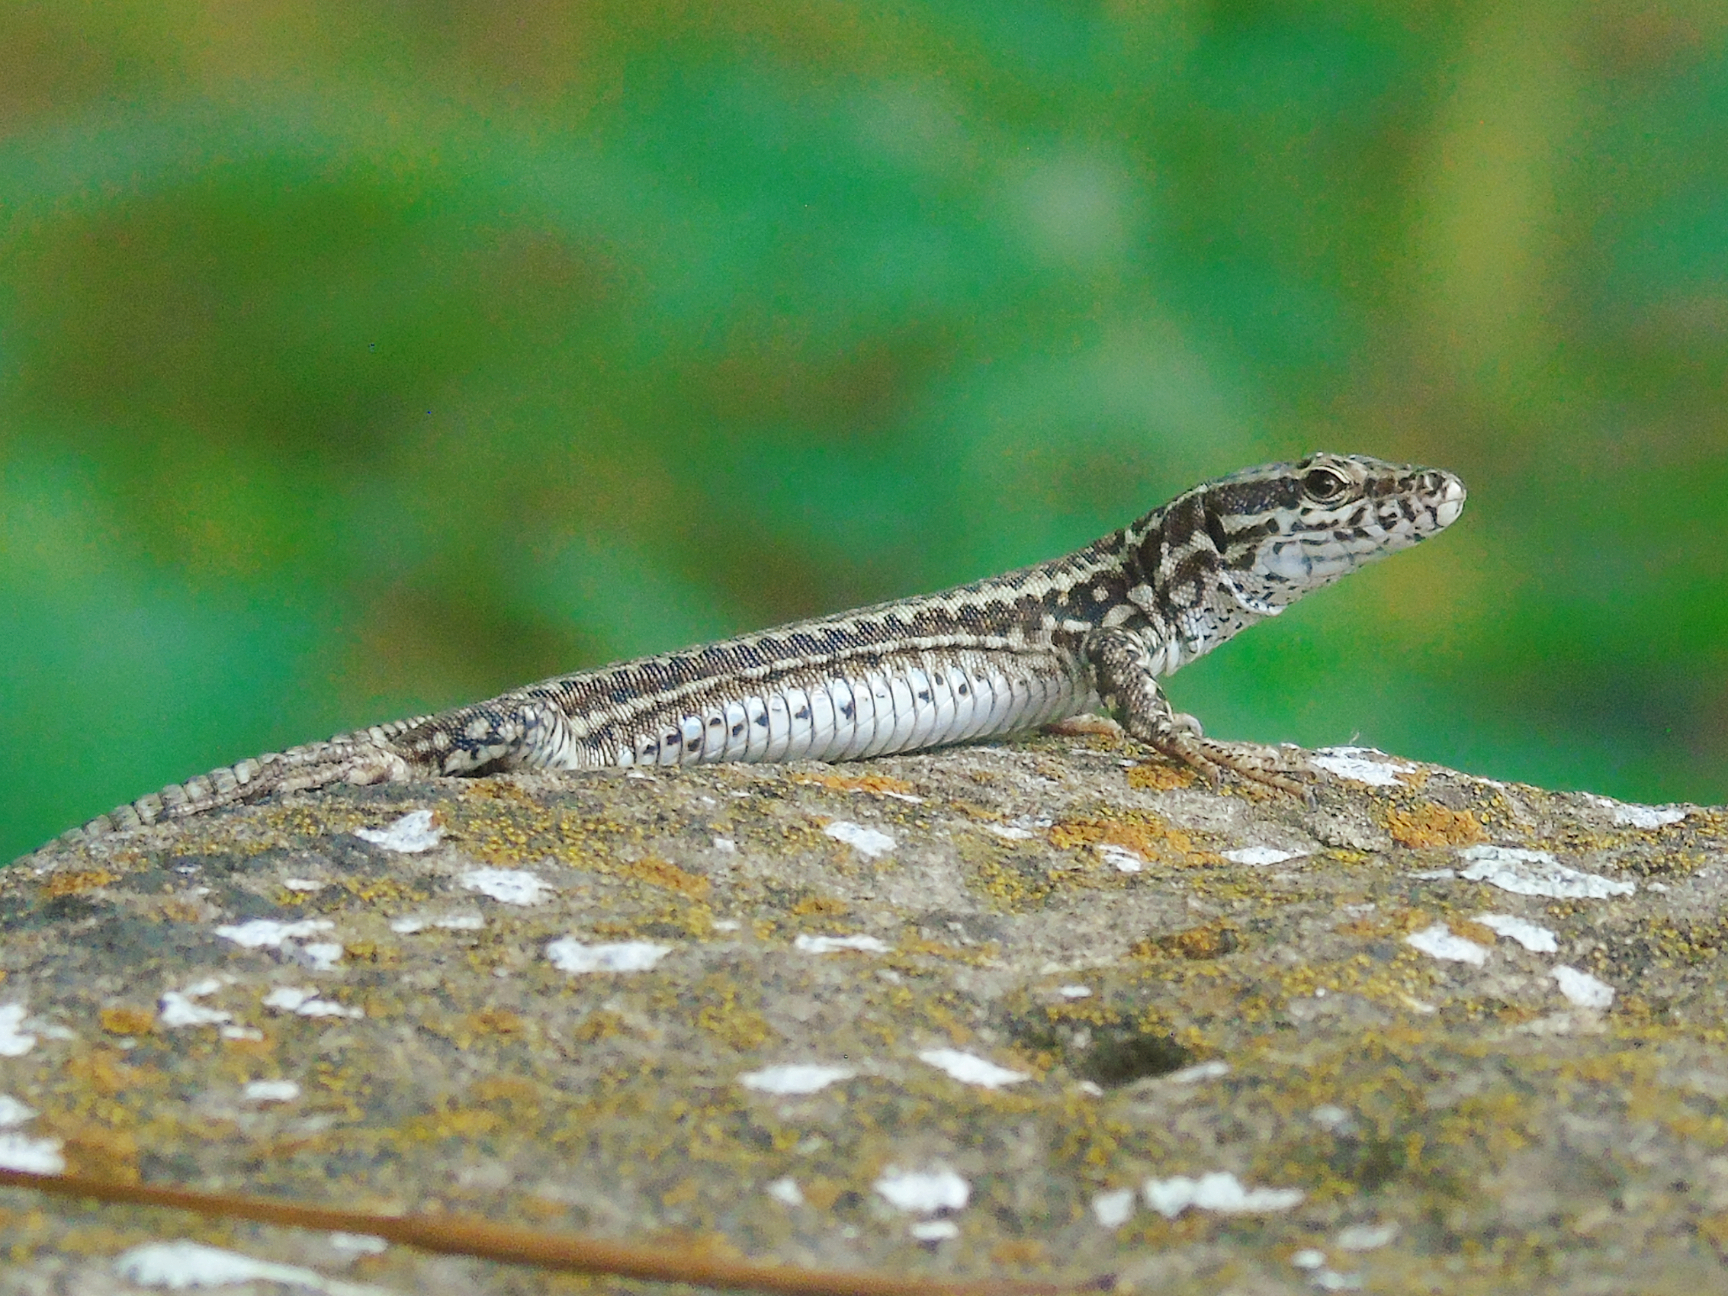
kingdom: Animalia
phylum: Chordata
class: Squamata
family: Lacertidae
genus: Podarcis
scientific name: Podarcis muralis
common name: Common wall lizard
